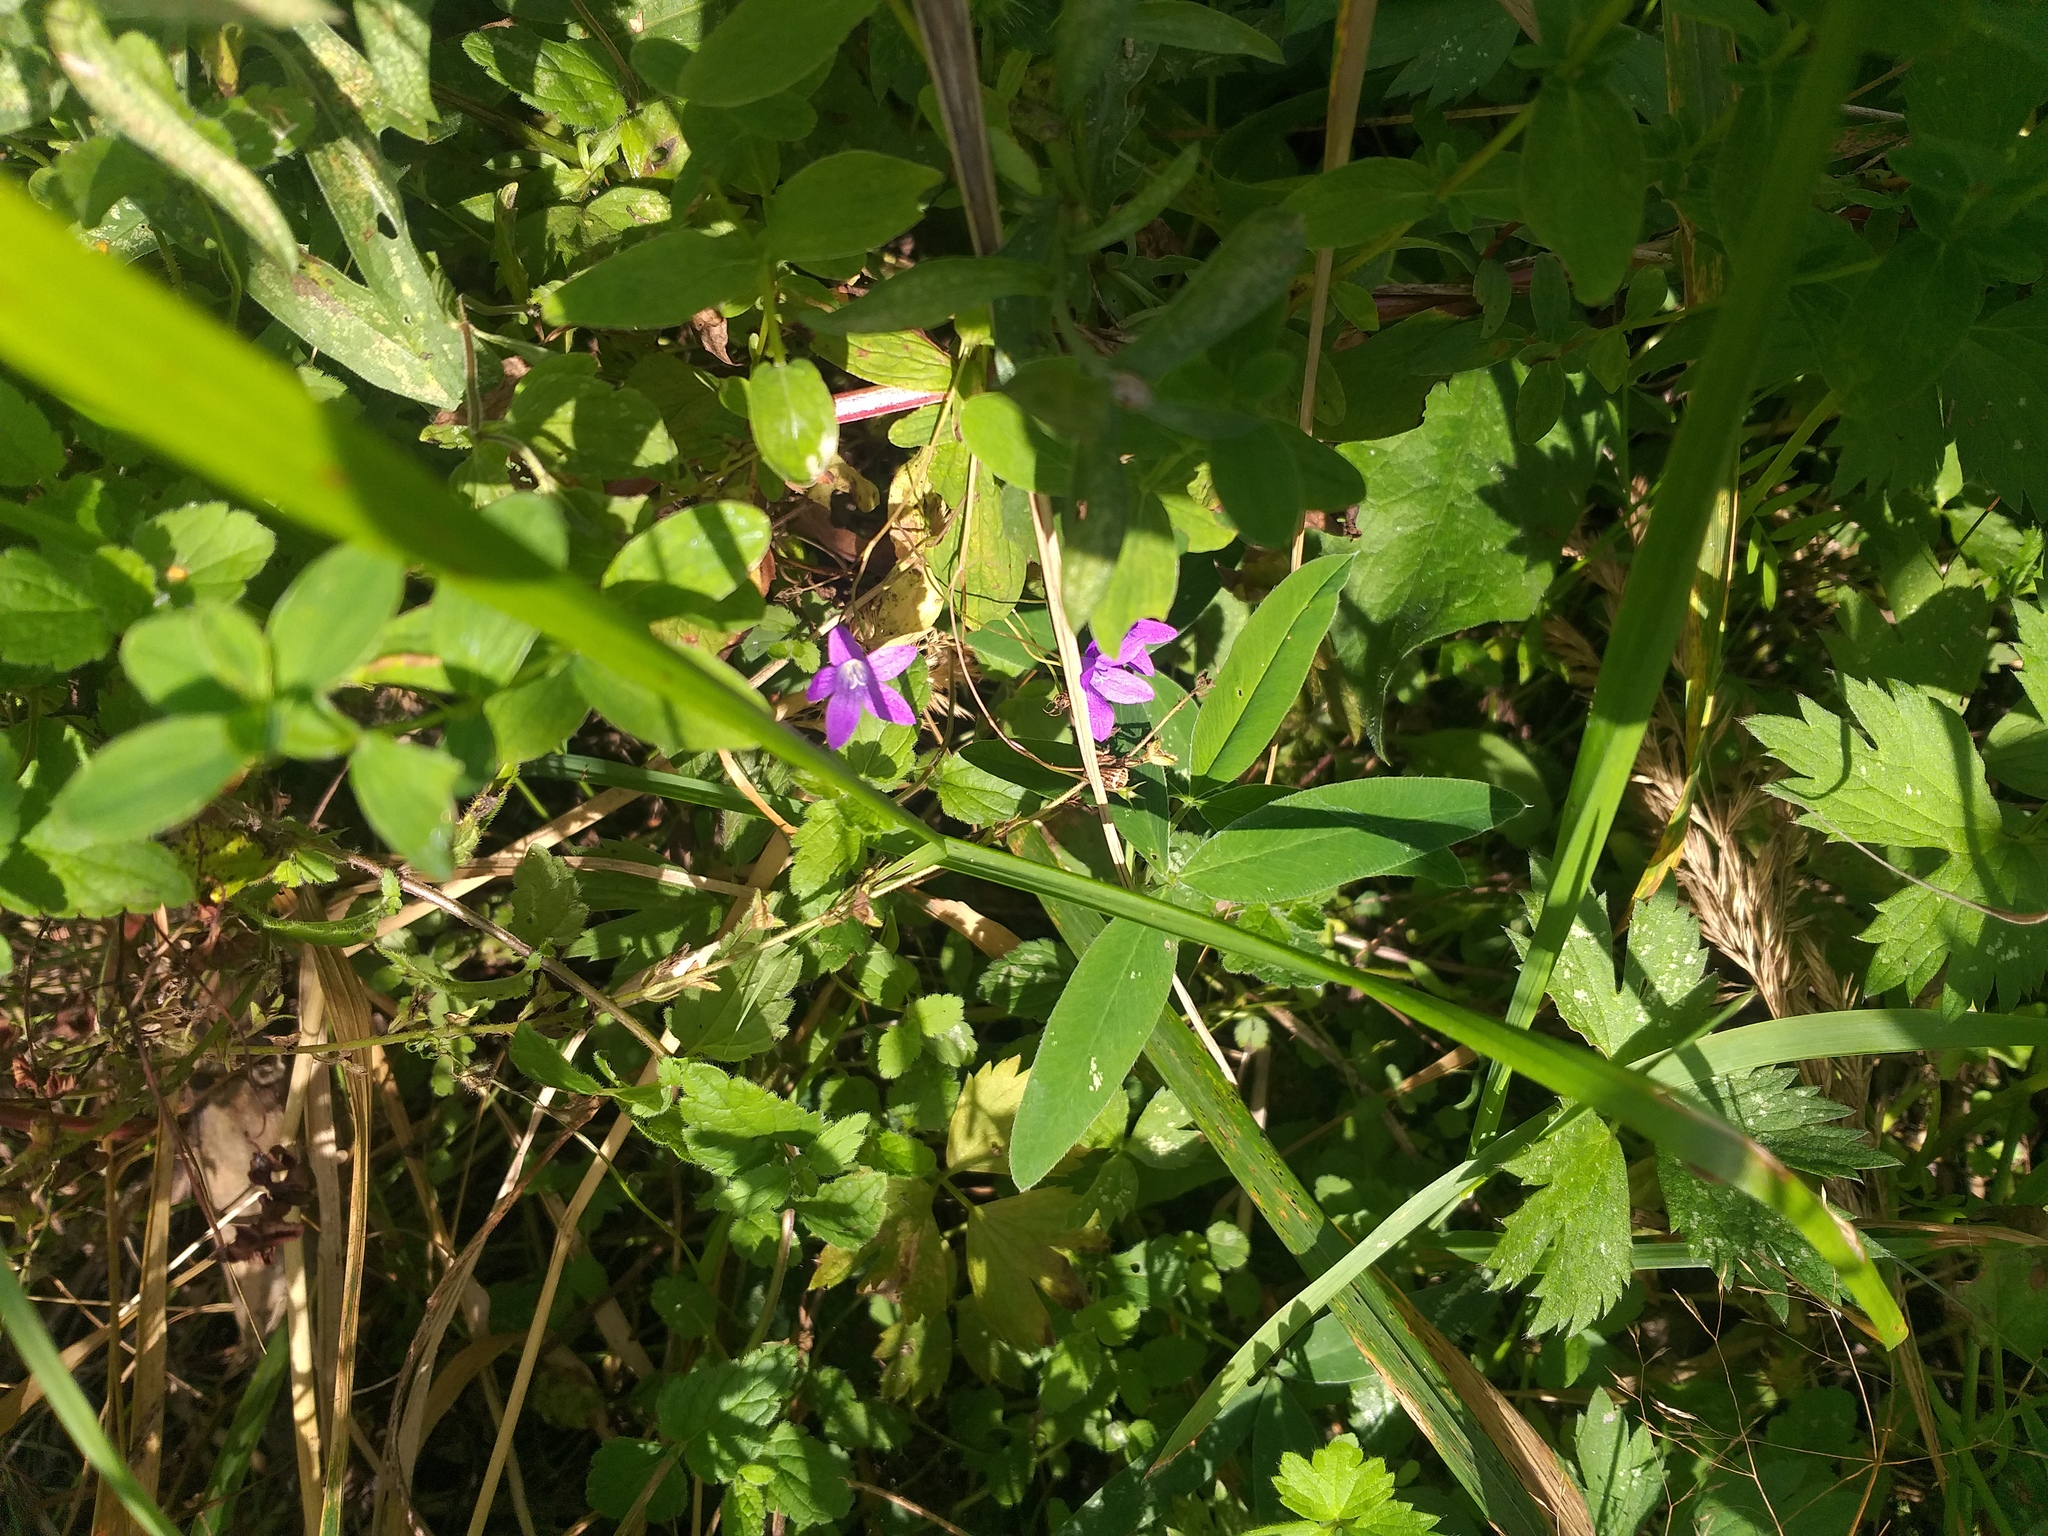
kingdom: Plantae
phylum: Tracheophyta
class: Magnoliopsida
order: Asterales
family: Campanulaceae
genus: Campanula
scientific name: Campanula patula
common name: Spreading bellflower
